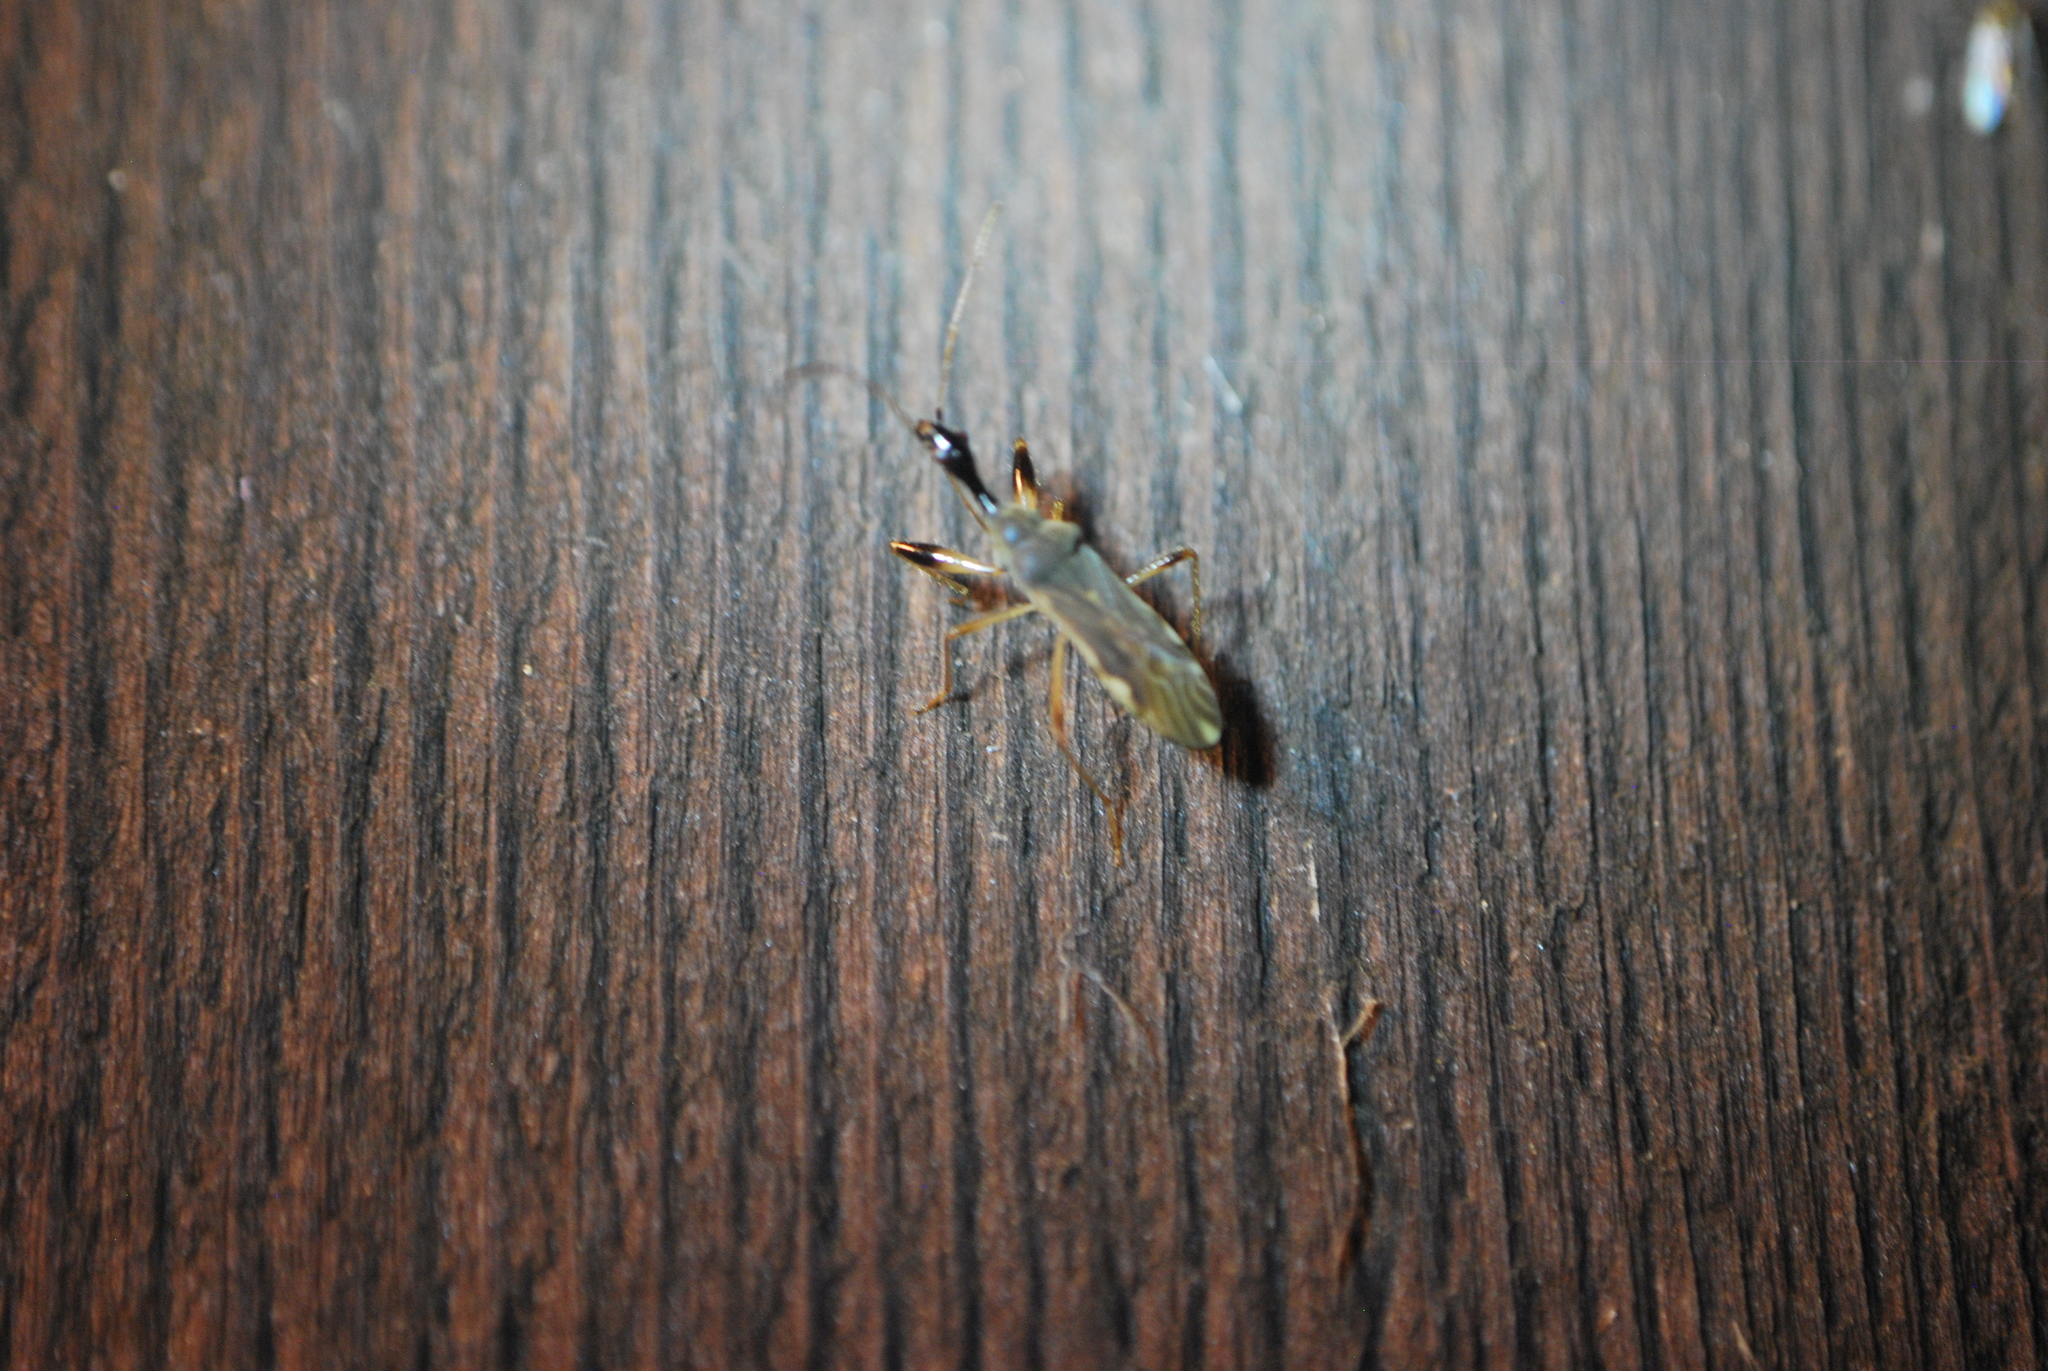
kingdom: Animalia
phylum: Arthropoda
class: Insecta
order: Hemiptera
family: Rhyparochromidae
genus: Myodocha
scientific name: Myodocha serripes
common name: Long-necked seed bug
